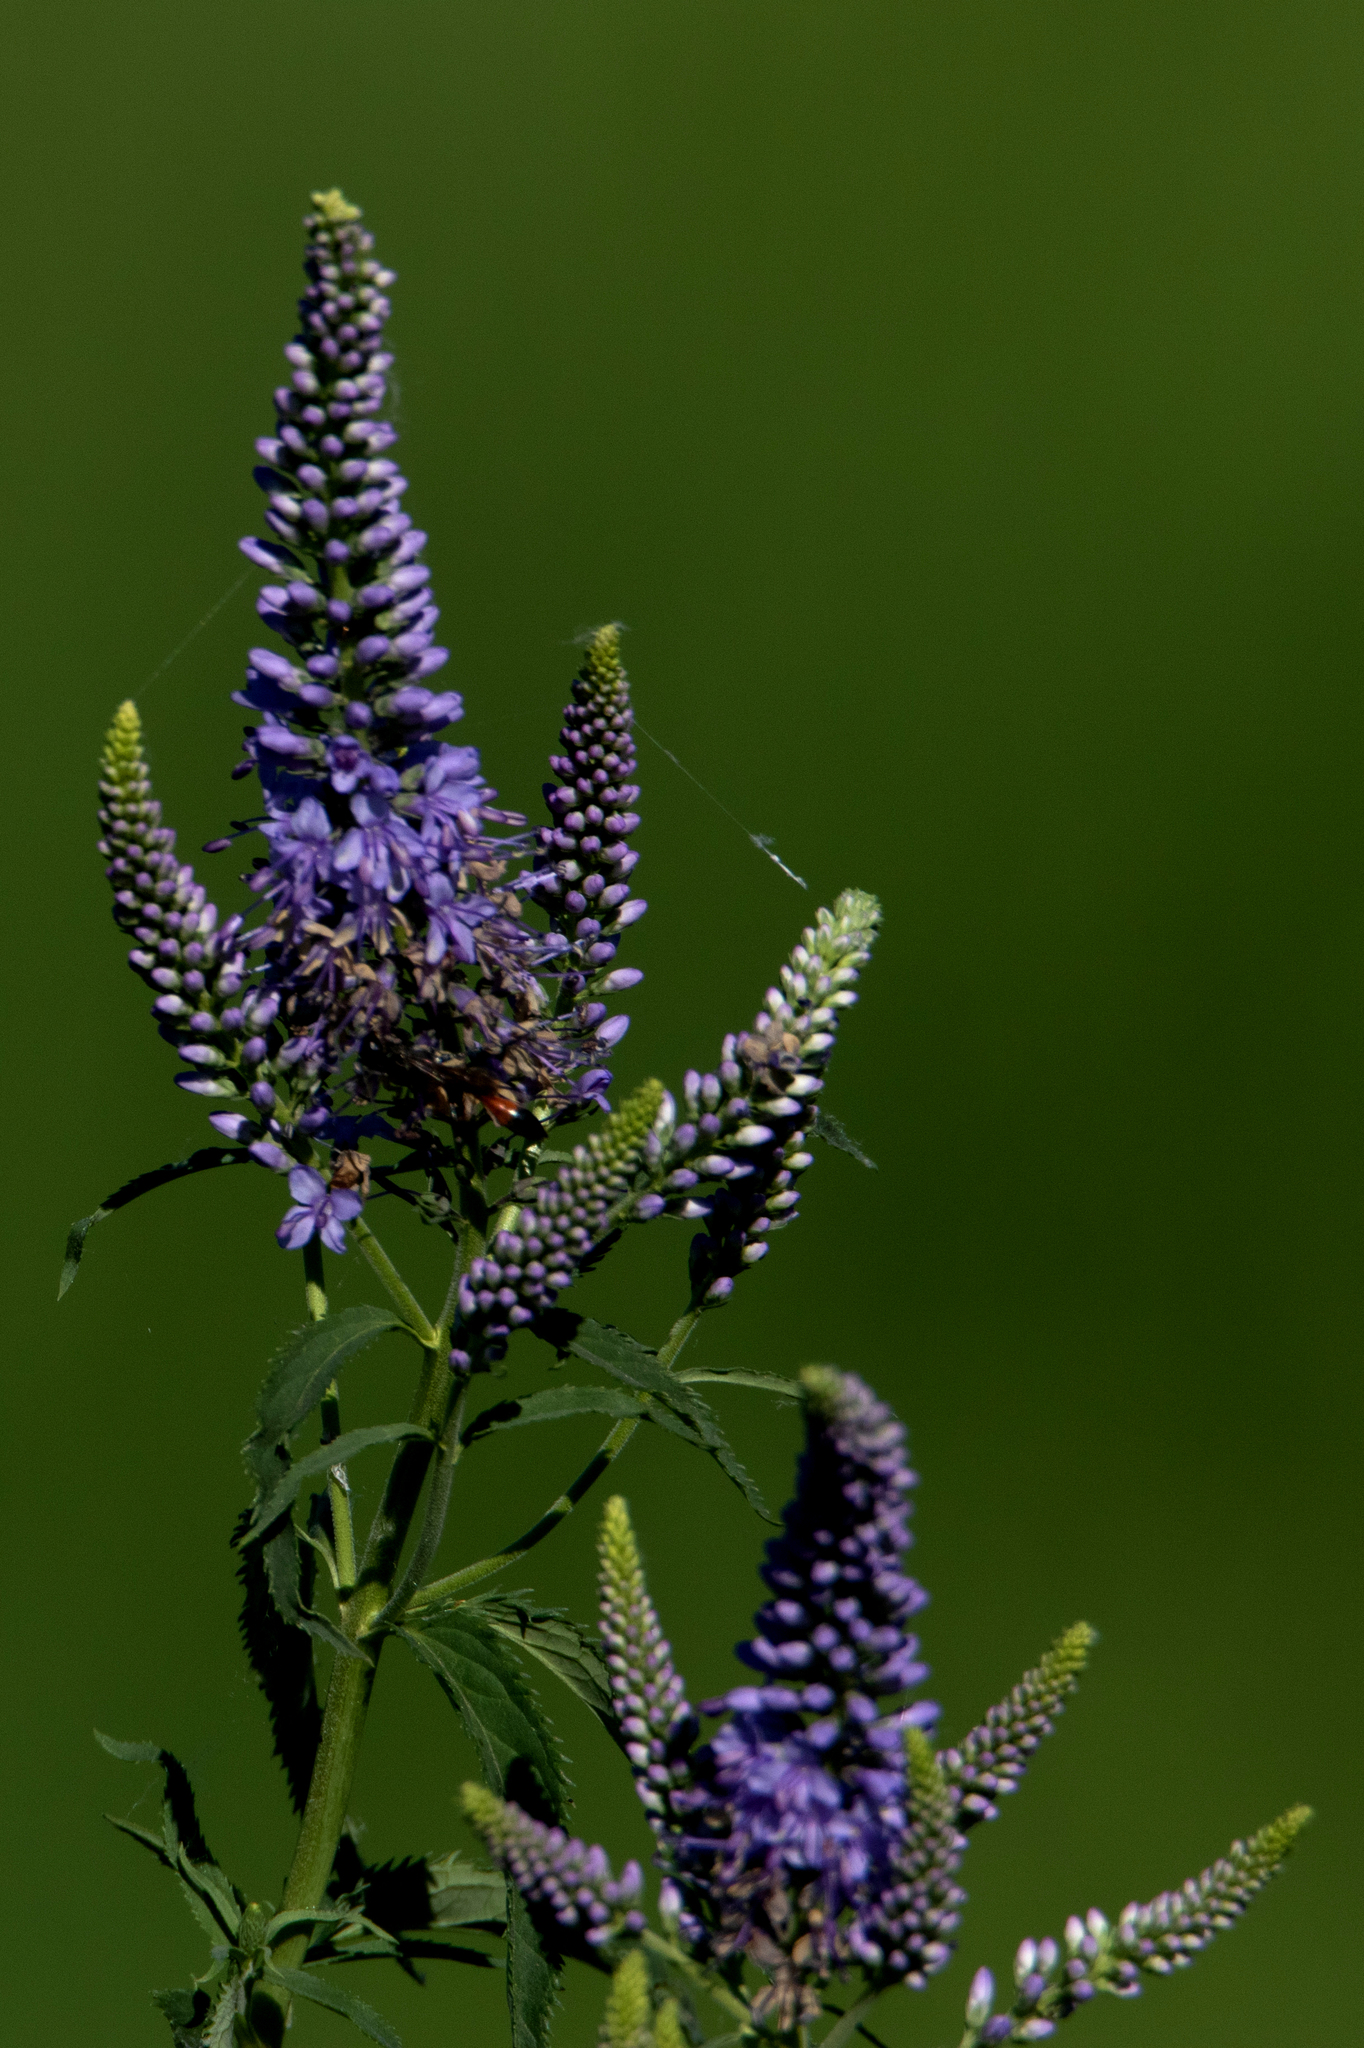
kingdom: Plantae
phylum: Tracheophyta
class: Magnoliopsida
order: Lamiales
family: Plantaginaceae
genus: Veronica
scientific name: Veronica longifolia
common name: Garden speedwell
